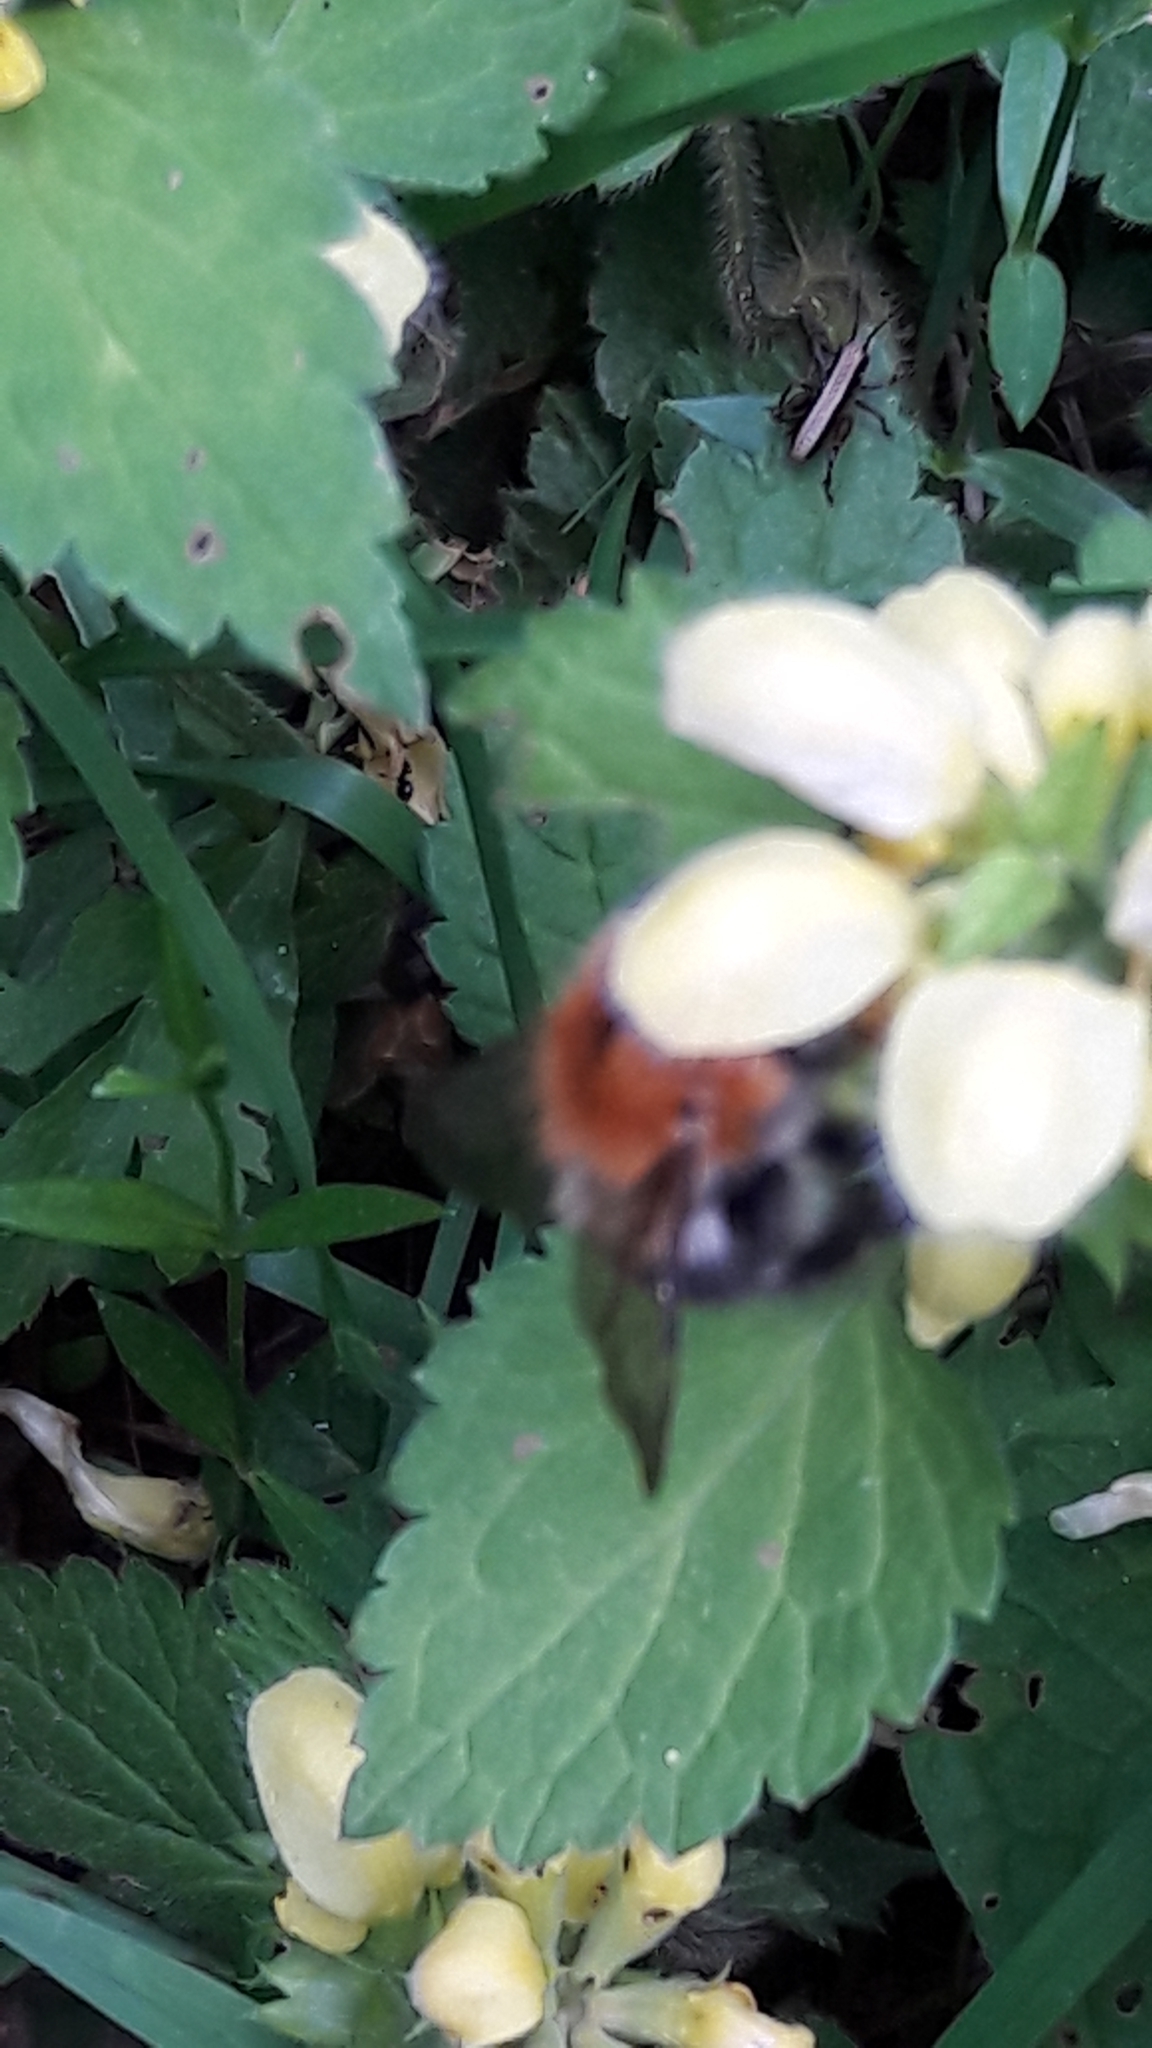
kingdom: Animalia
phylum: Arthropoda
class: Insecta
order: Hymenoptera
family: Apidae
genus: Bombus
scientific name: Bombus pascuorum
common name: Common carder bee
